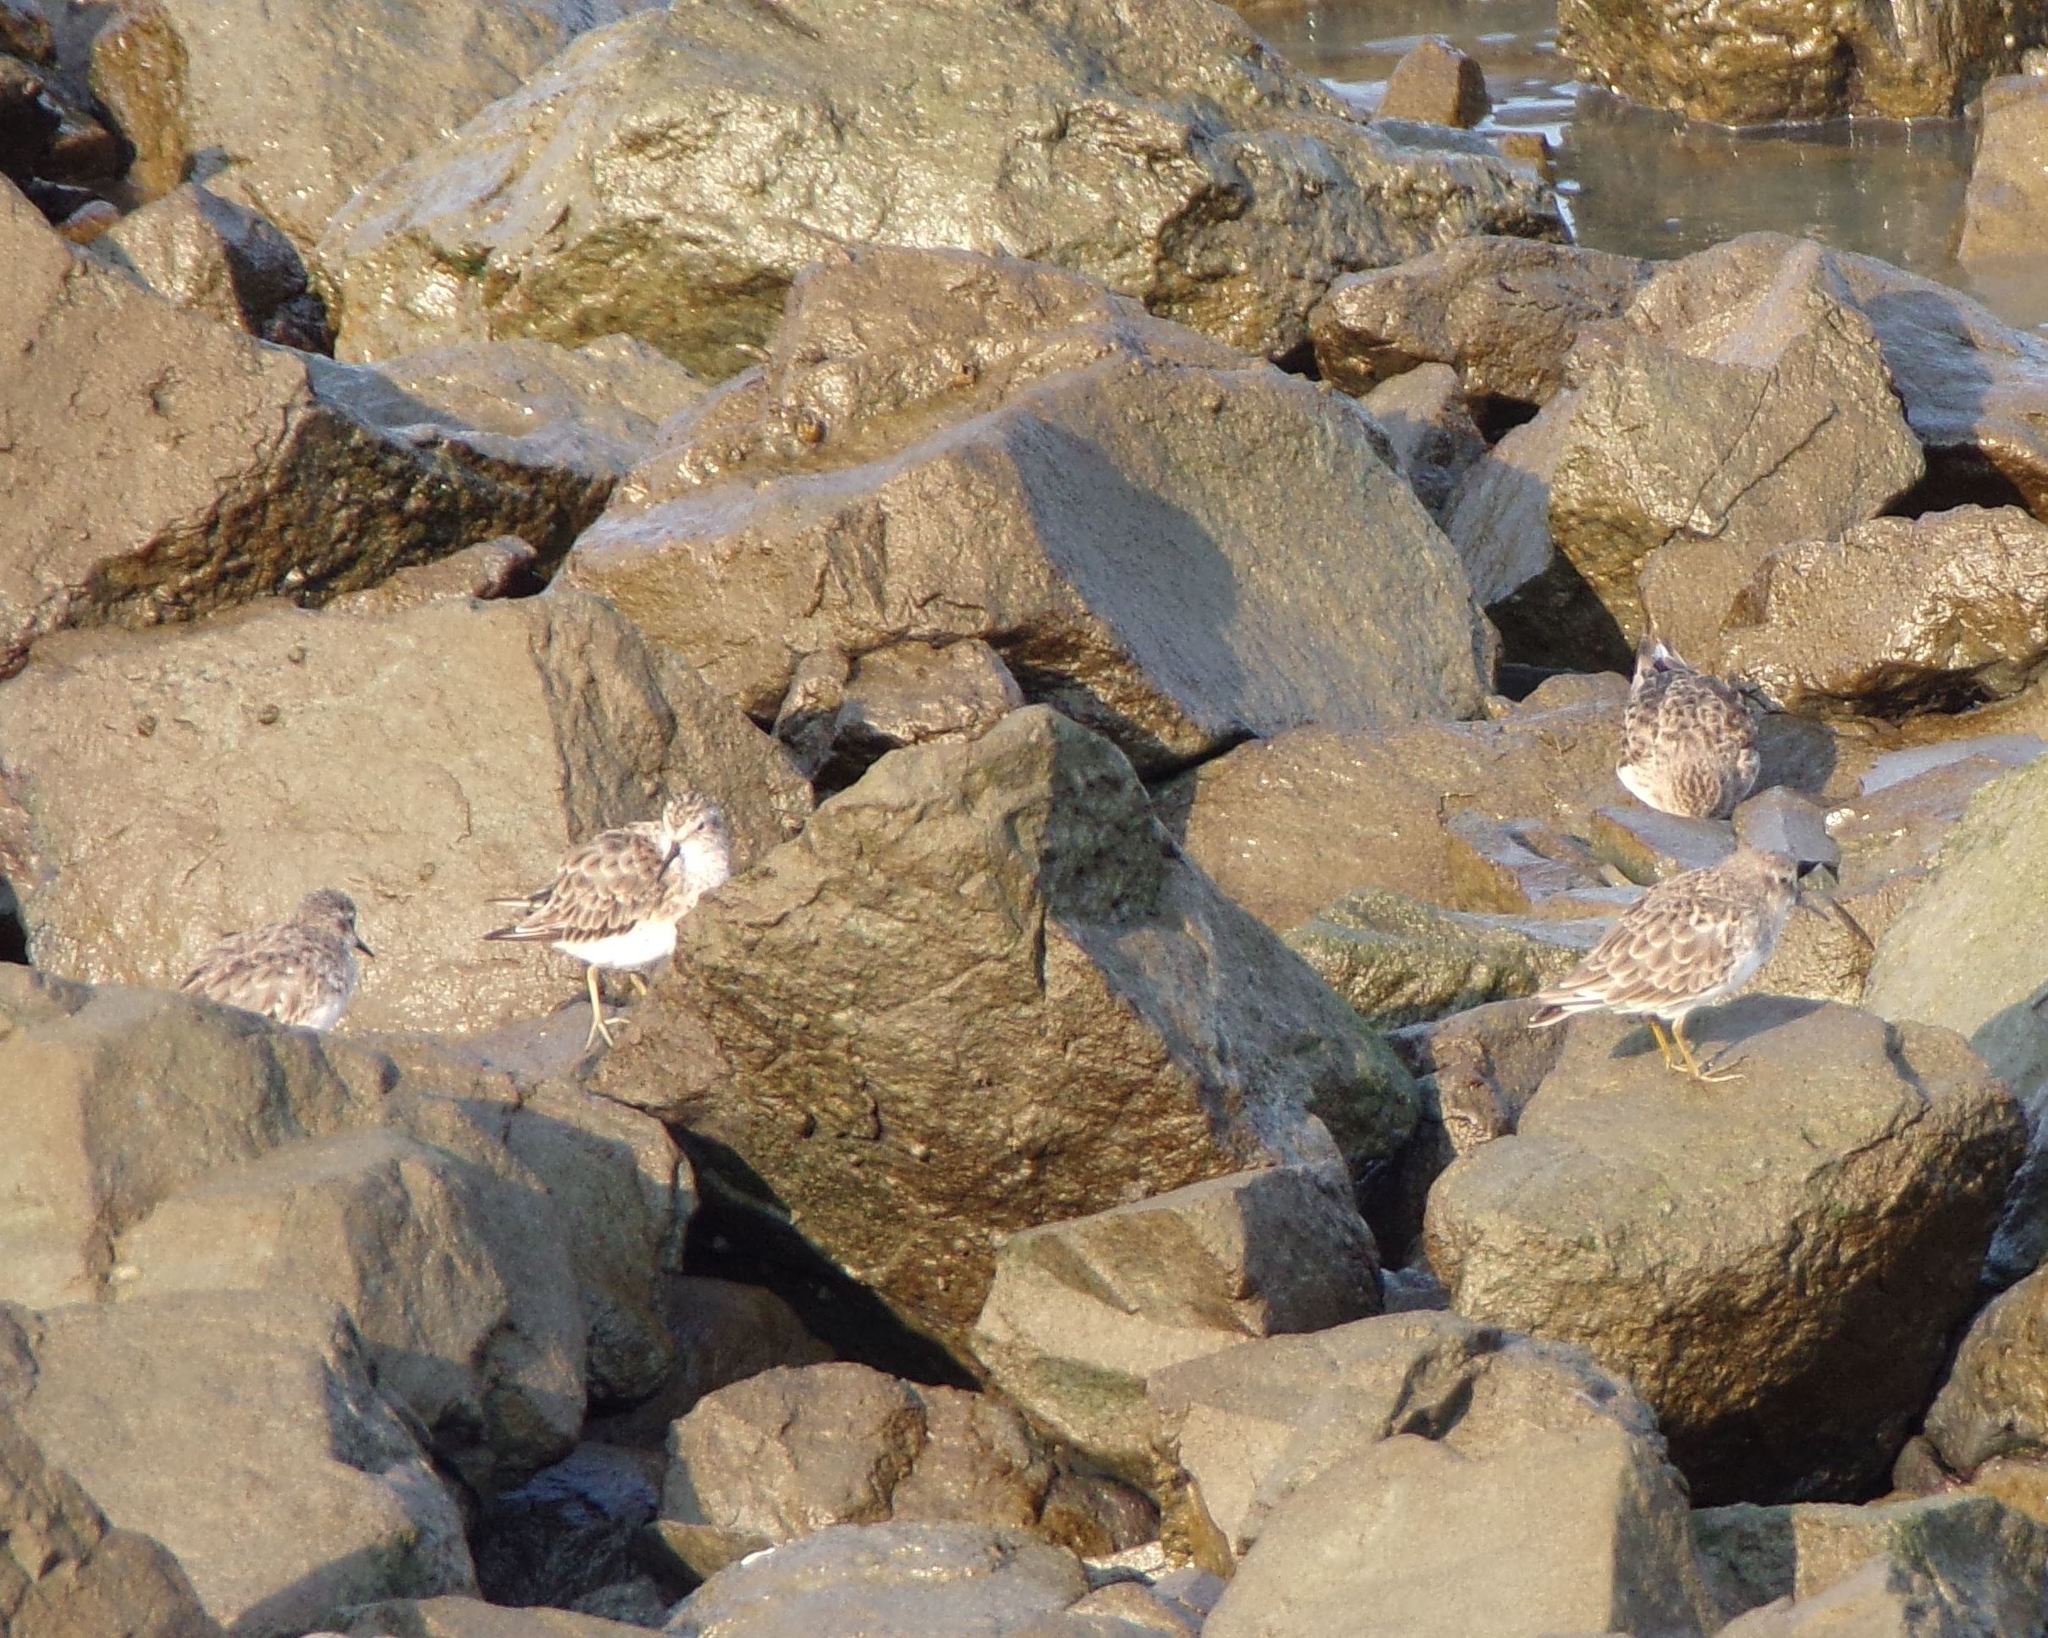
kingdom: Animalia
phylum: Chordata
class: Aves
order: Charadriiformes
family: Scolopacidae
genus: Calidris
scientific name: Calidris minutilla
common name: Least sandpiper
